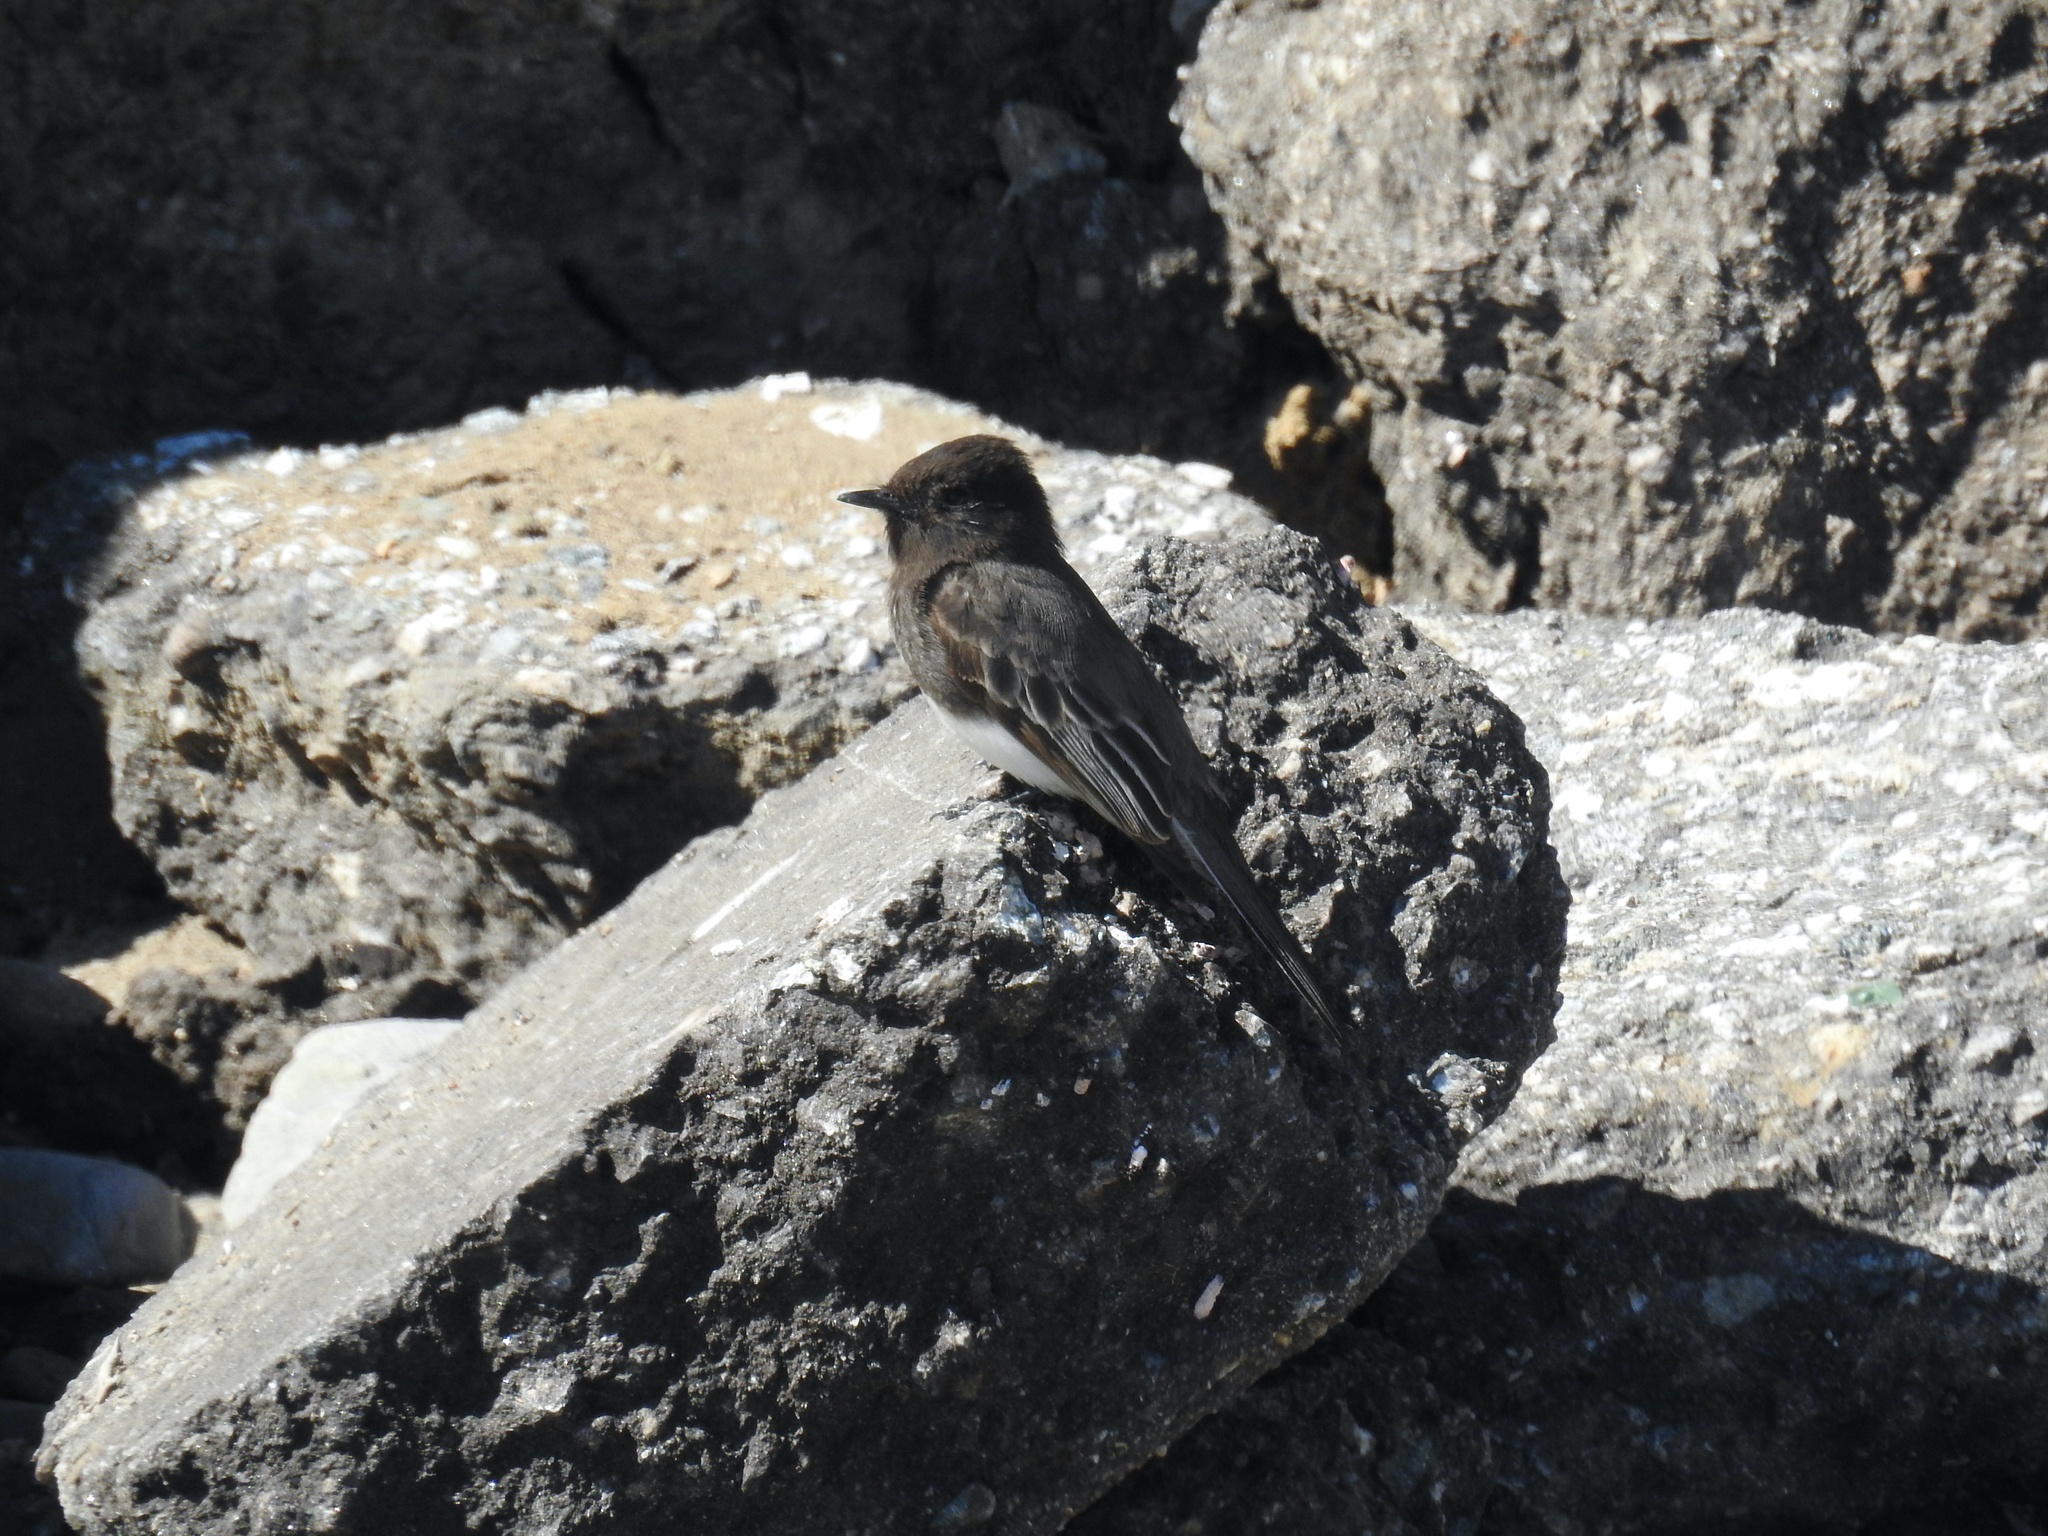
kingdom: Animalia
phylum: Chordata
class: Aves
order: Passeriformes
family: Tyrannidae
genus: Sayornis
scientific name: Sayornis nigricans
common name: Black phoebe
